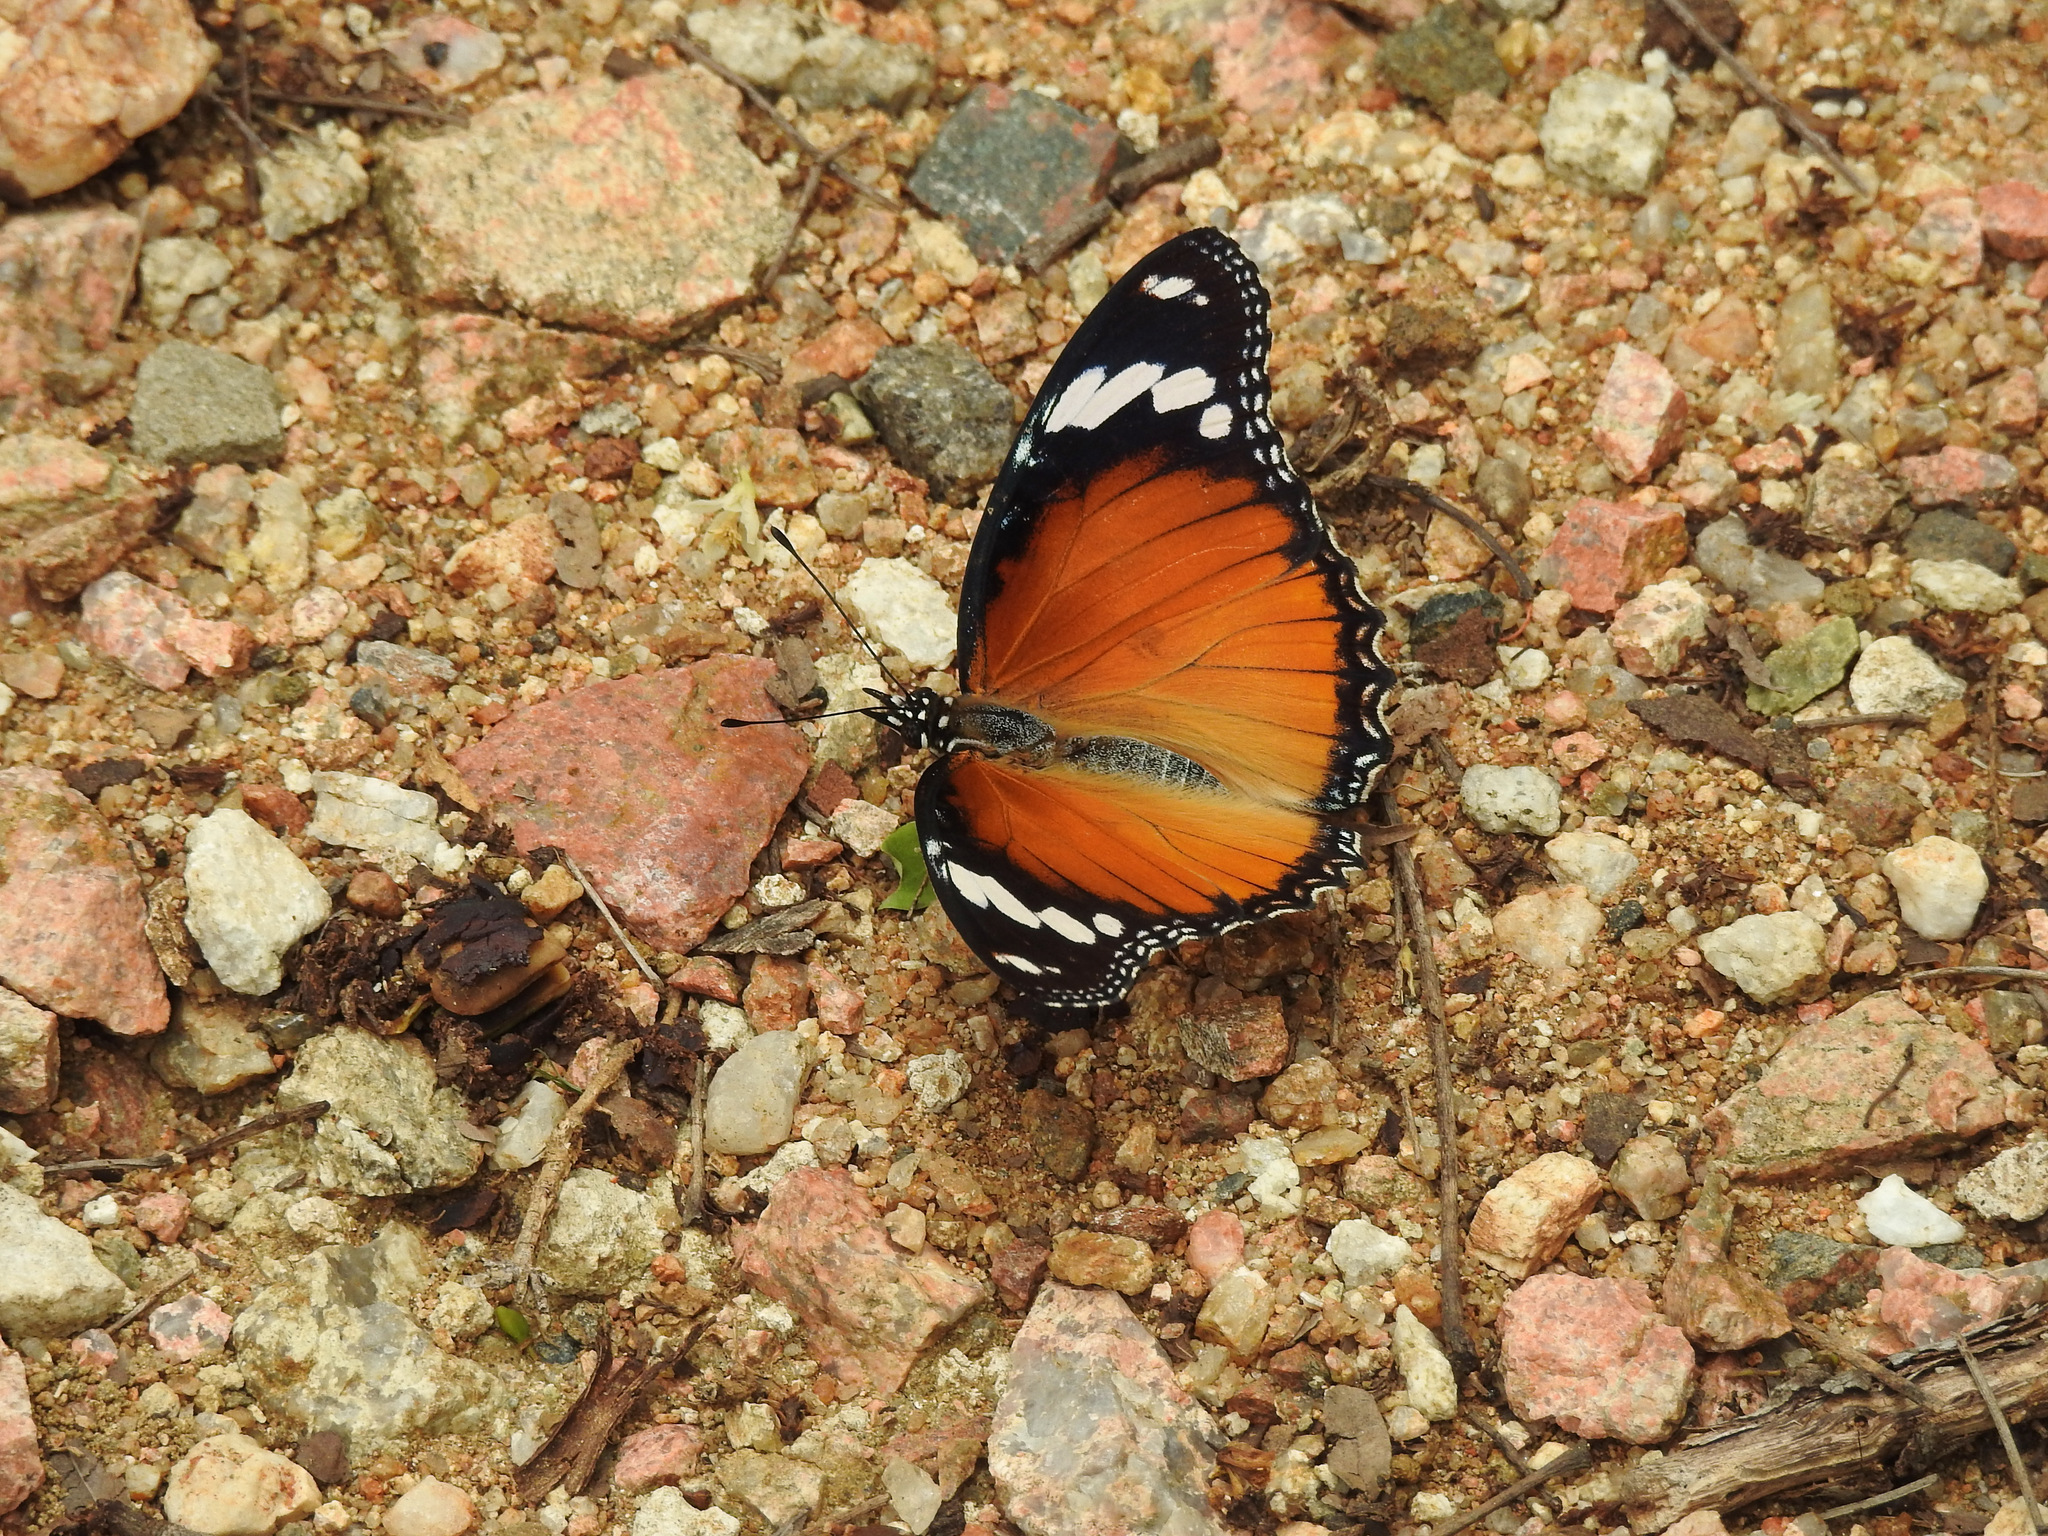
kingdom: Animalia
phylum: Arthropoda
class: Insecta
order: Lepidoptera
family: Nymphalidae
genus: Hypolimnas
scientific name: Hypolimnas misippus
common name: False plain tiger
